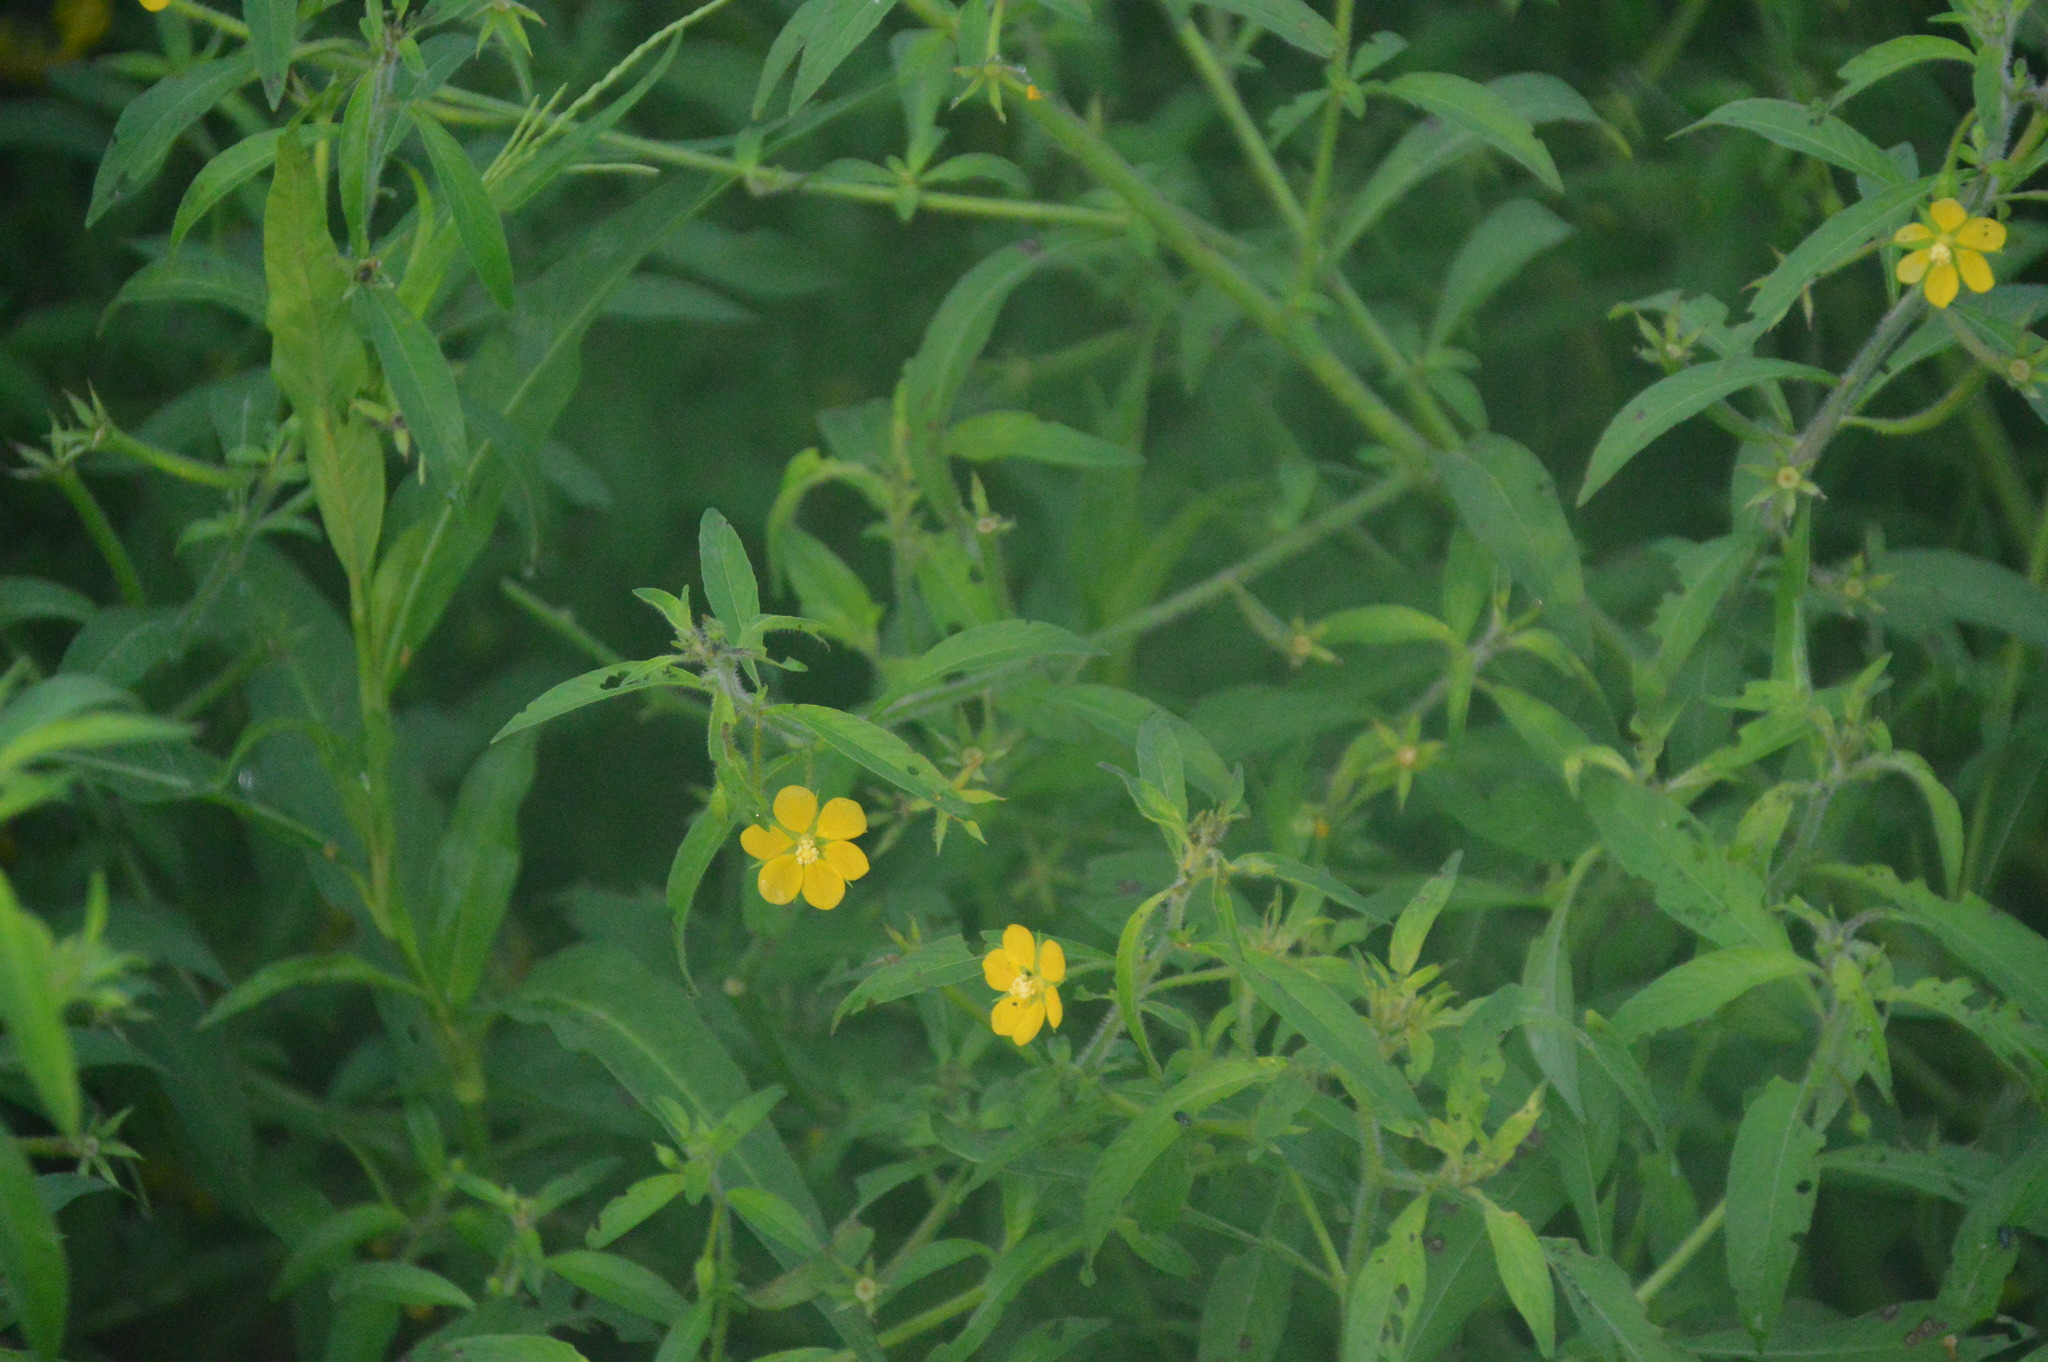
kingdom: Plantae
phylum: Tracheophyta
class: Magnoliopsida
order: Myrtales
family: Onagraceae
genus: Ludwigia
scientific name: Ludwigia leptocarpa
